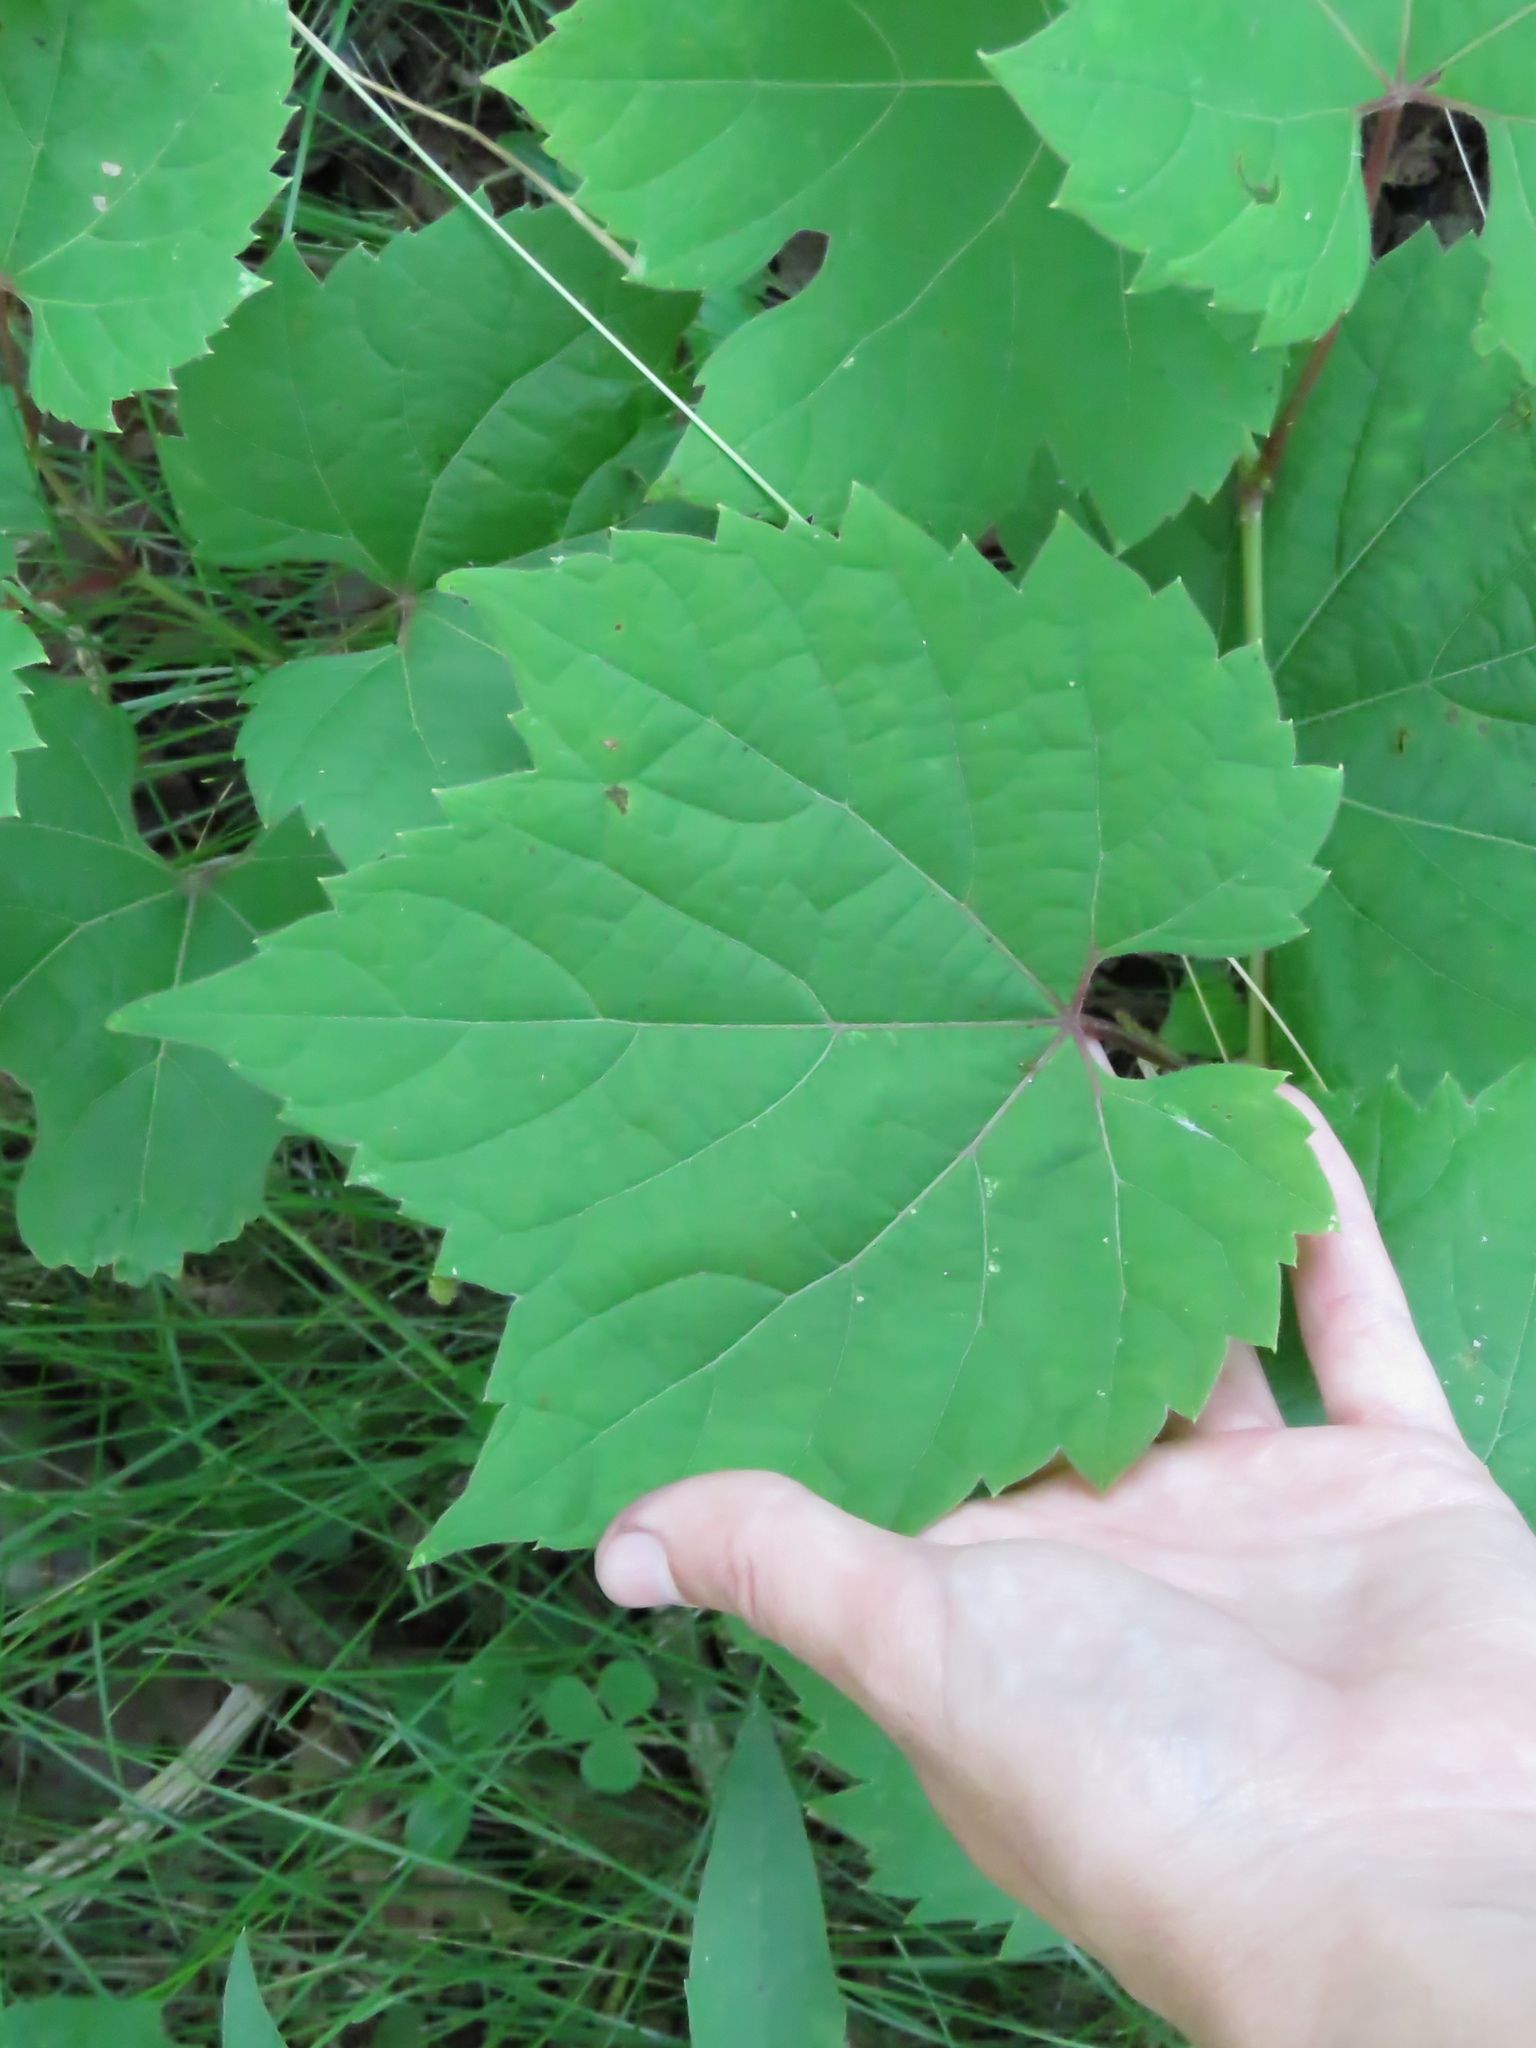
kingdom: Plantae
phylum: Tracheophyta
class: Magnoliopsida
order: Vitales
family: Vitaceae
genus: Vitis
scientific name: Vitis riparia
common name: Frost grape
